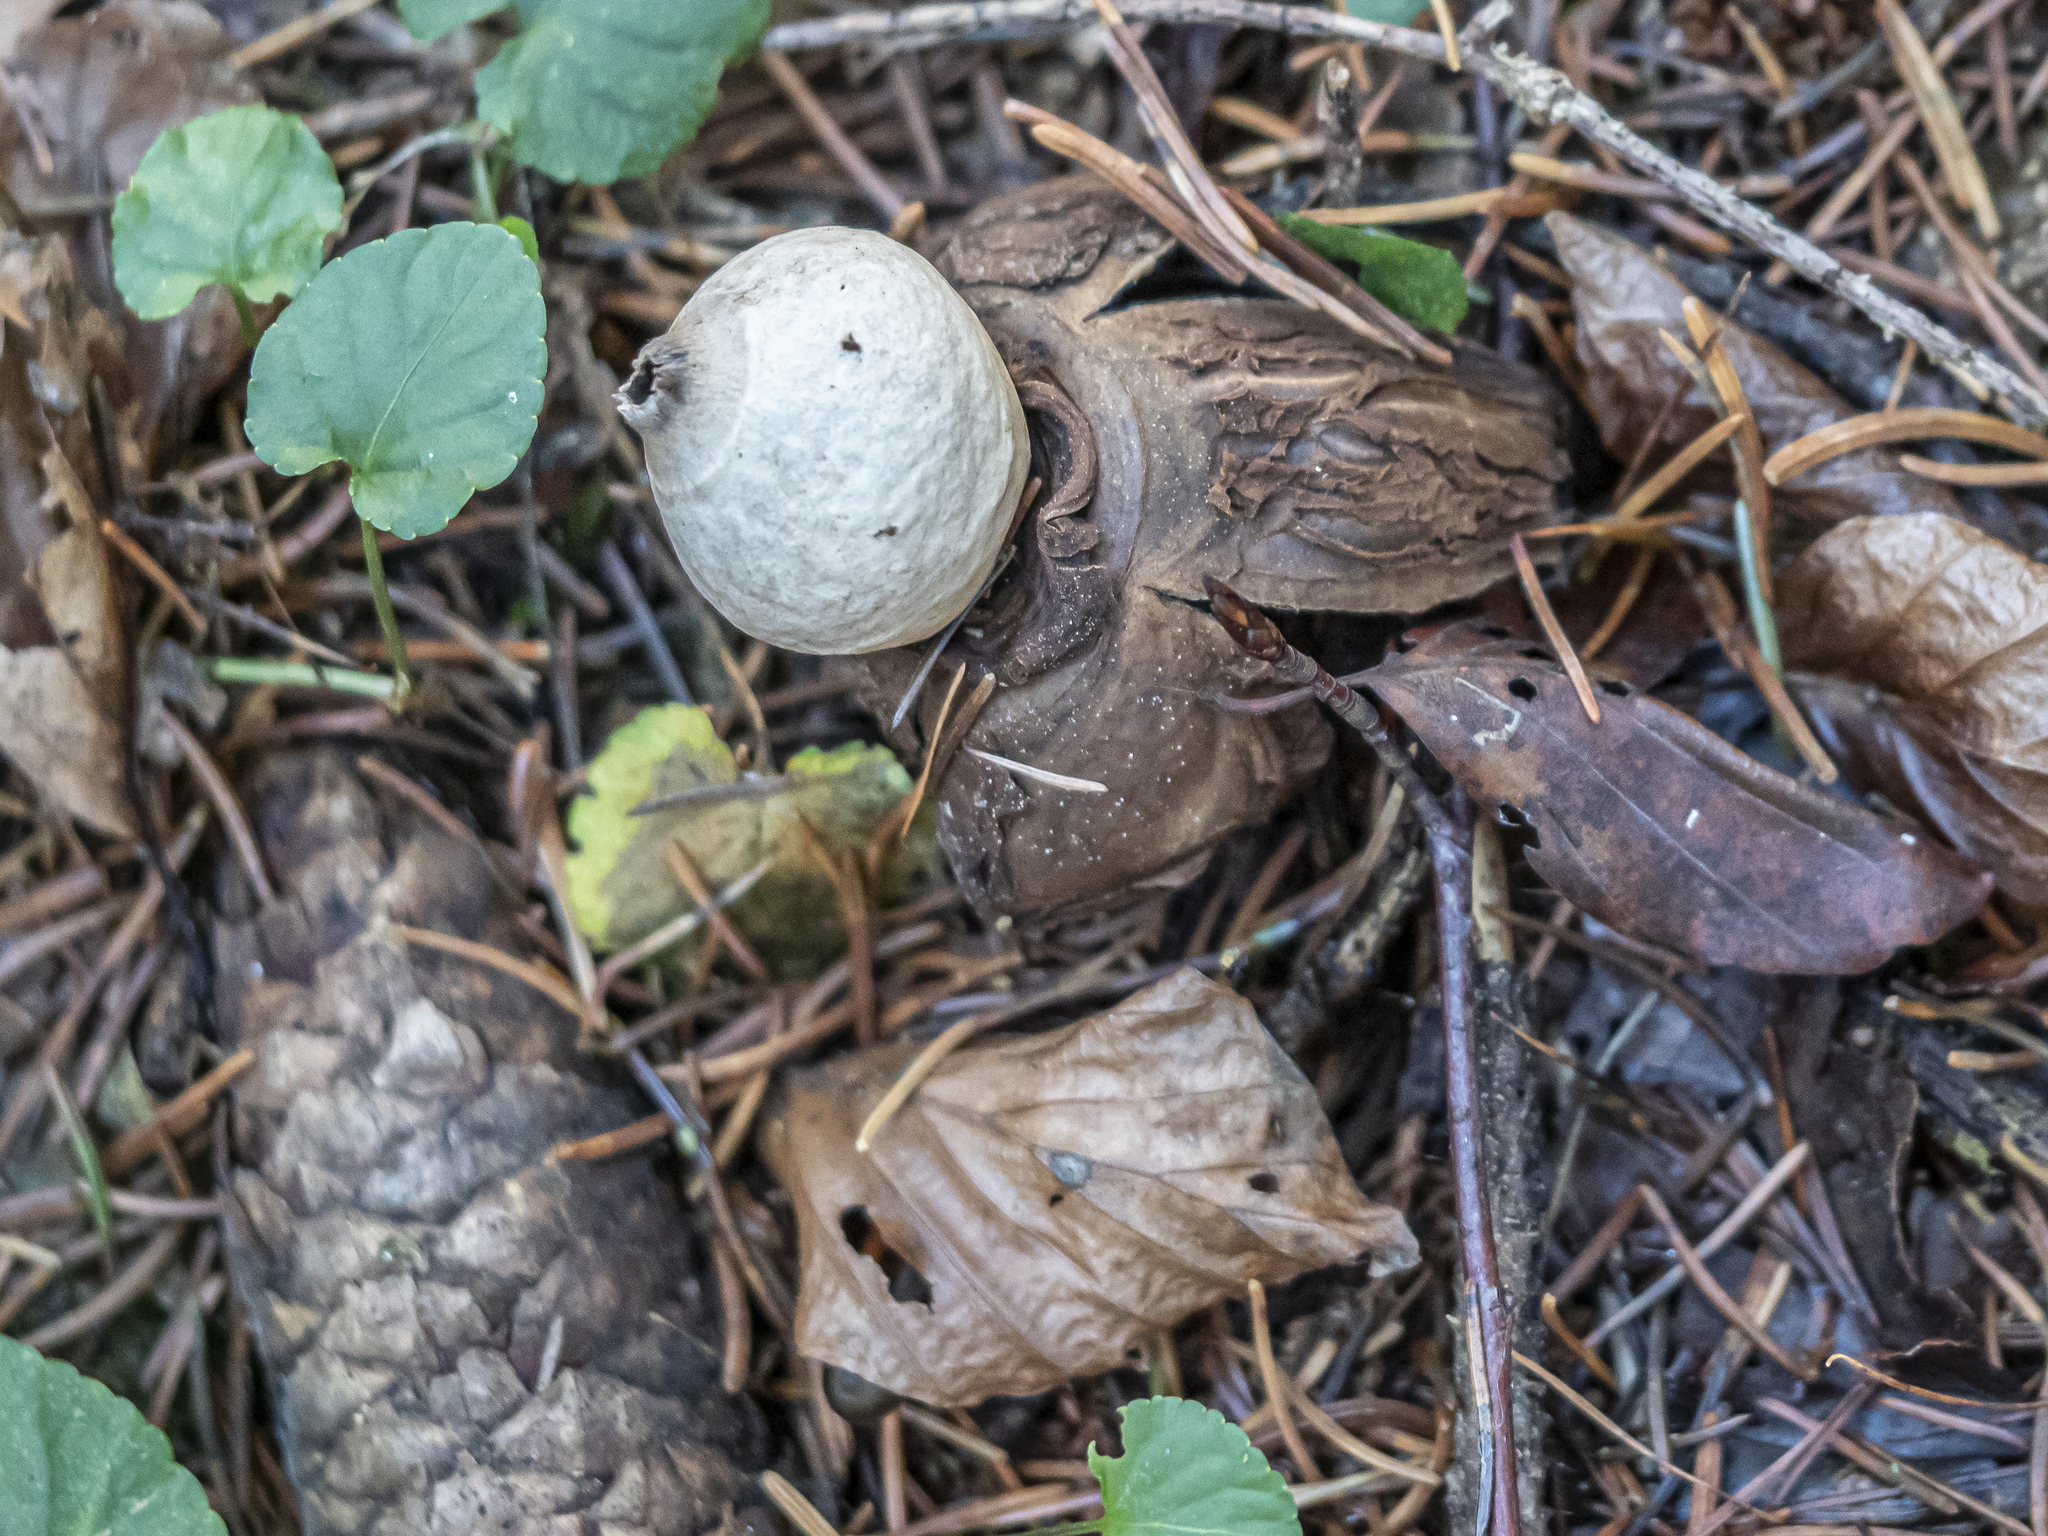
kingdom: Fungi
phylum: Basidiomycota
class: Agaricomycetes
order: Geastrales
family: Geastraceae
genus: Geastrum
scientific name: Geastrum triplex
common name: Collared earthstar
